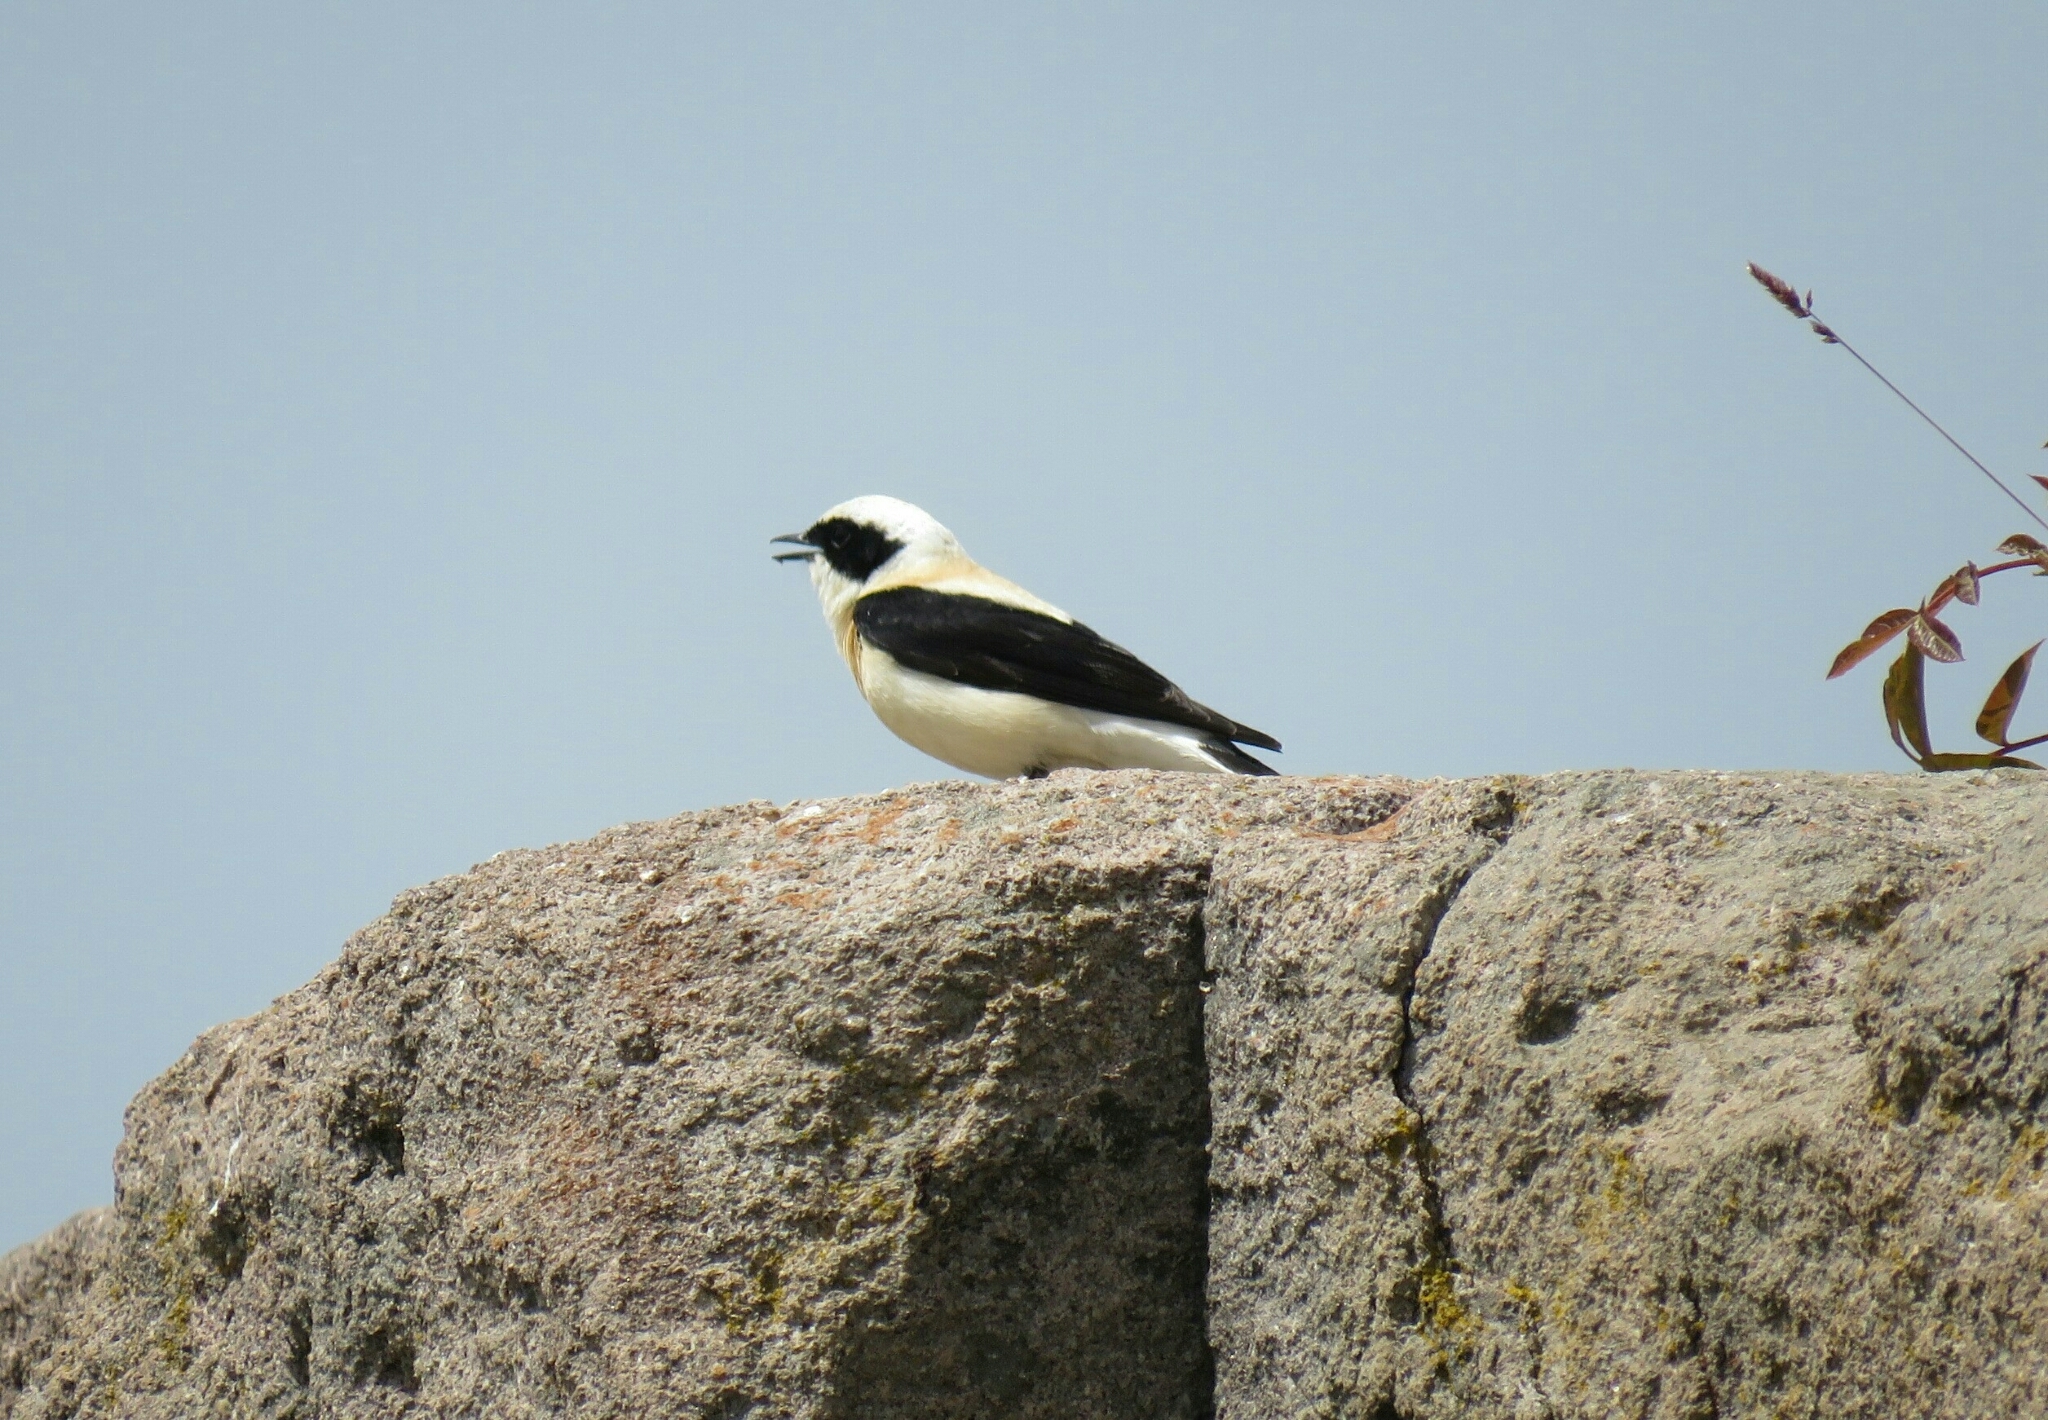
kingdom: Animalia
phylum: Chordata
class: Aves
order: Passeriformes
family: Muscicapidae
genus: Oenanthe
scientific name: Oenanthe hispanica
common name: Black-eared wheatear
